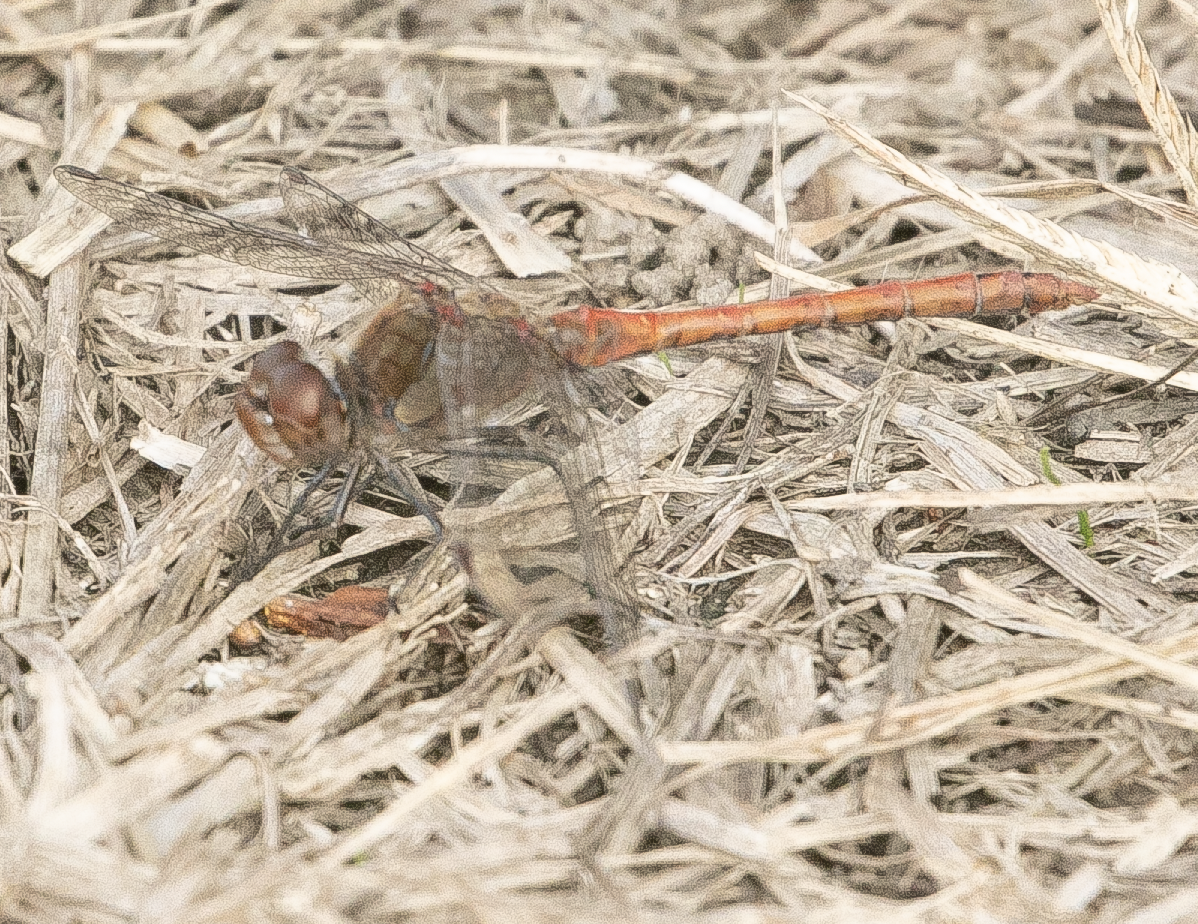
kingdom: Animalia
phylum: Arthropoda
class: Insecta
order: Odonata
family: Libellulidae
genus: Sympetrum
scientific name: Sympetrum striolatum
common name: Common darter
